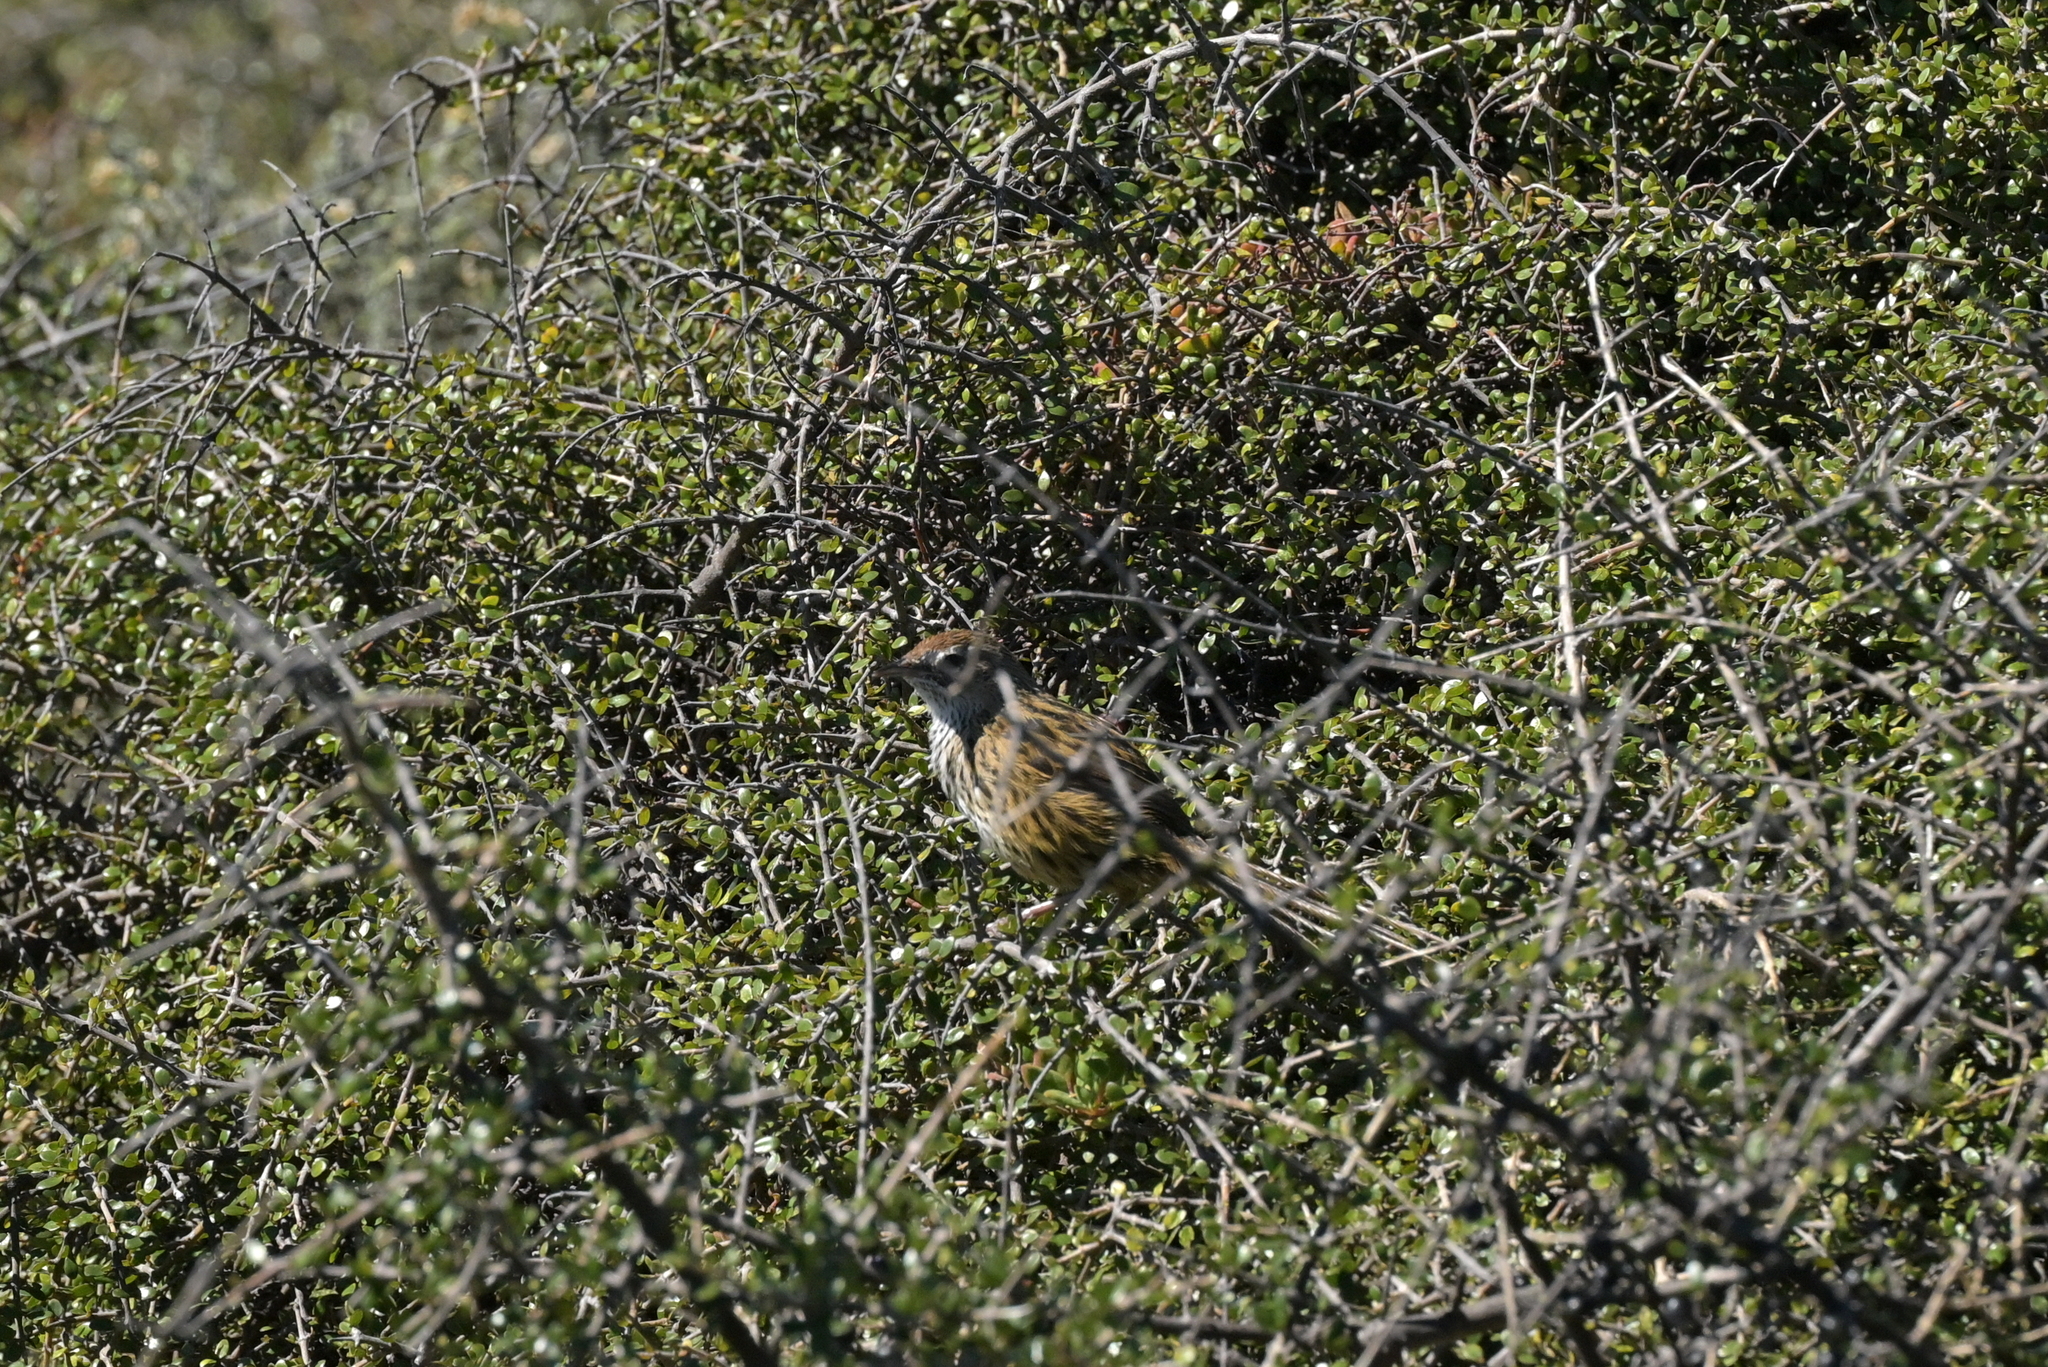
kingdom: Animalia
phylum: Chordata
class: Aves
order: Passeriformes
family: Locustellidae
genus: Megalurus
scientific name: Megalurus punctatus
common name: New zealand fernbird
